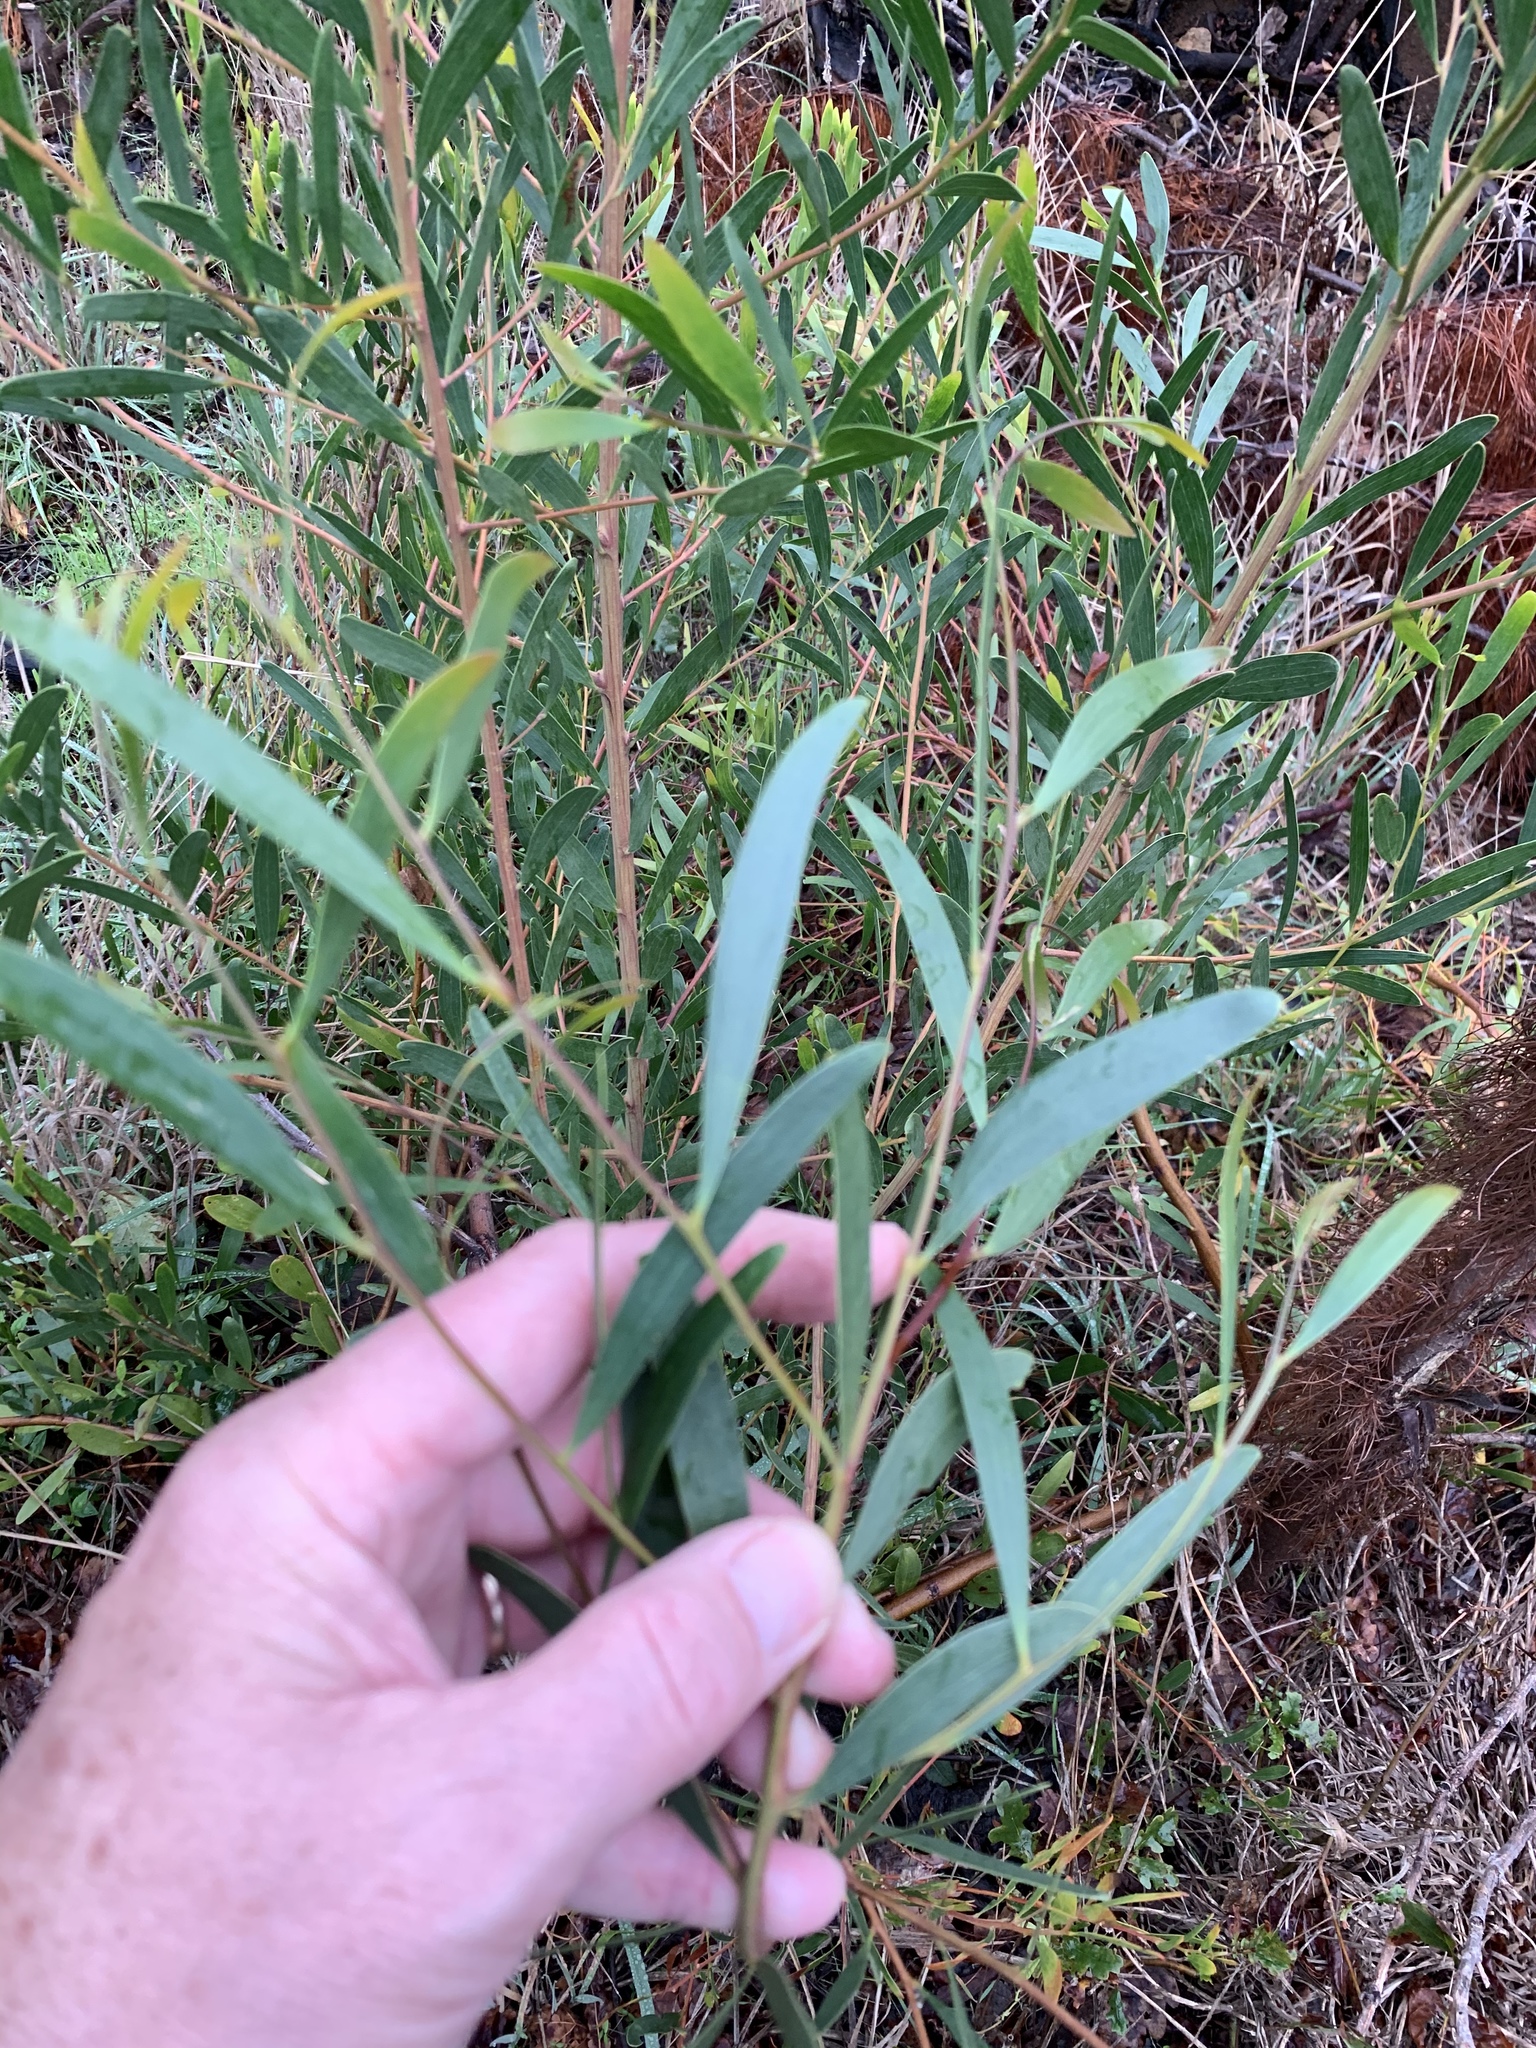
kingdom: Plantae
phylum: Tracheophyta
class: Magnoliopsida
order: Fabales
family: Fabaceae
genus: Acacia
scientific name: Acacia cyclops
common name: Coastal wattle
